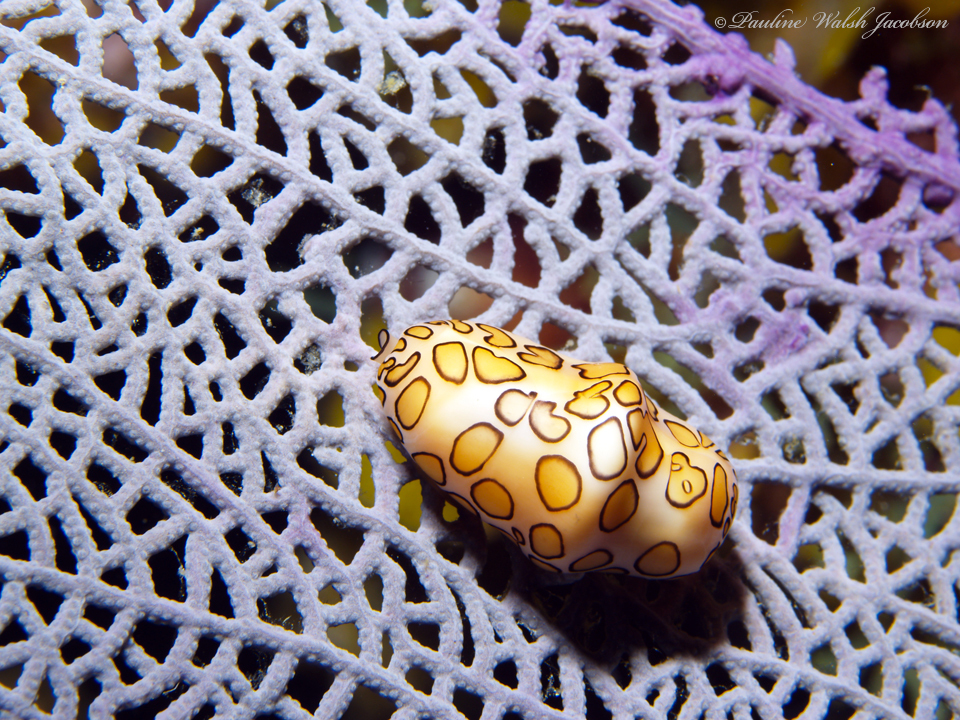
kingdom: Animalia
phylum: Mollusca
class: Gastropoda
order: Littorinimorpha
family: Ovulidae
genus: Cyphoma
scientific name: Cyphoma gibbosum
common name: Flamingo tongue
